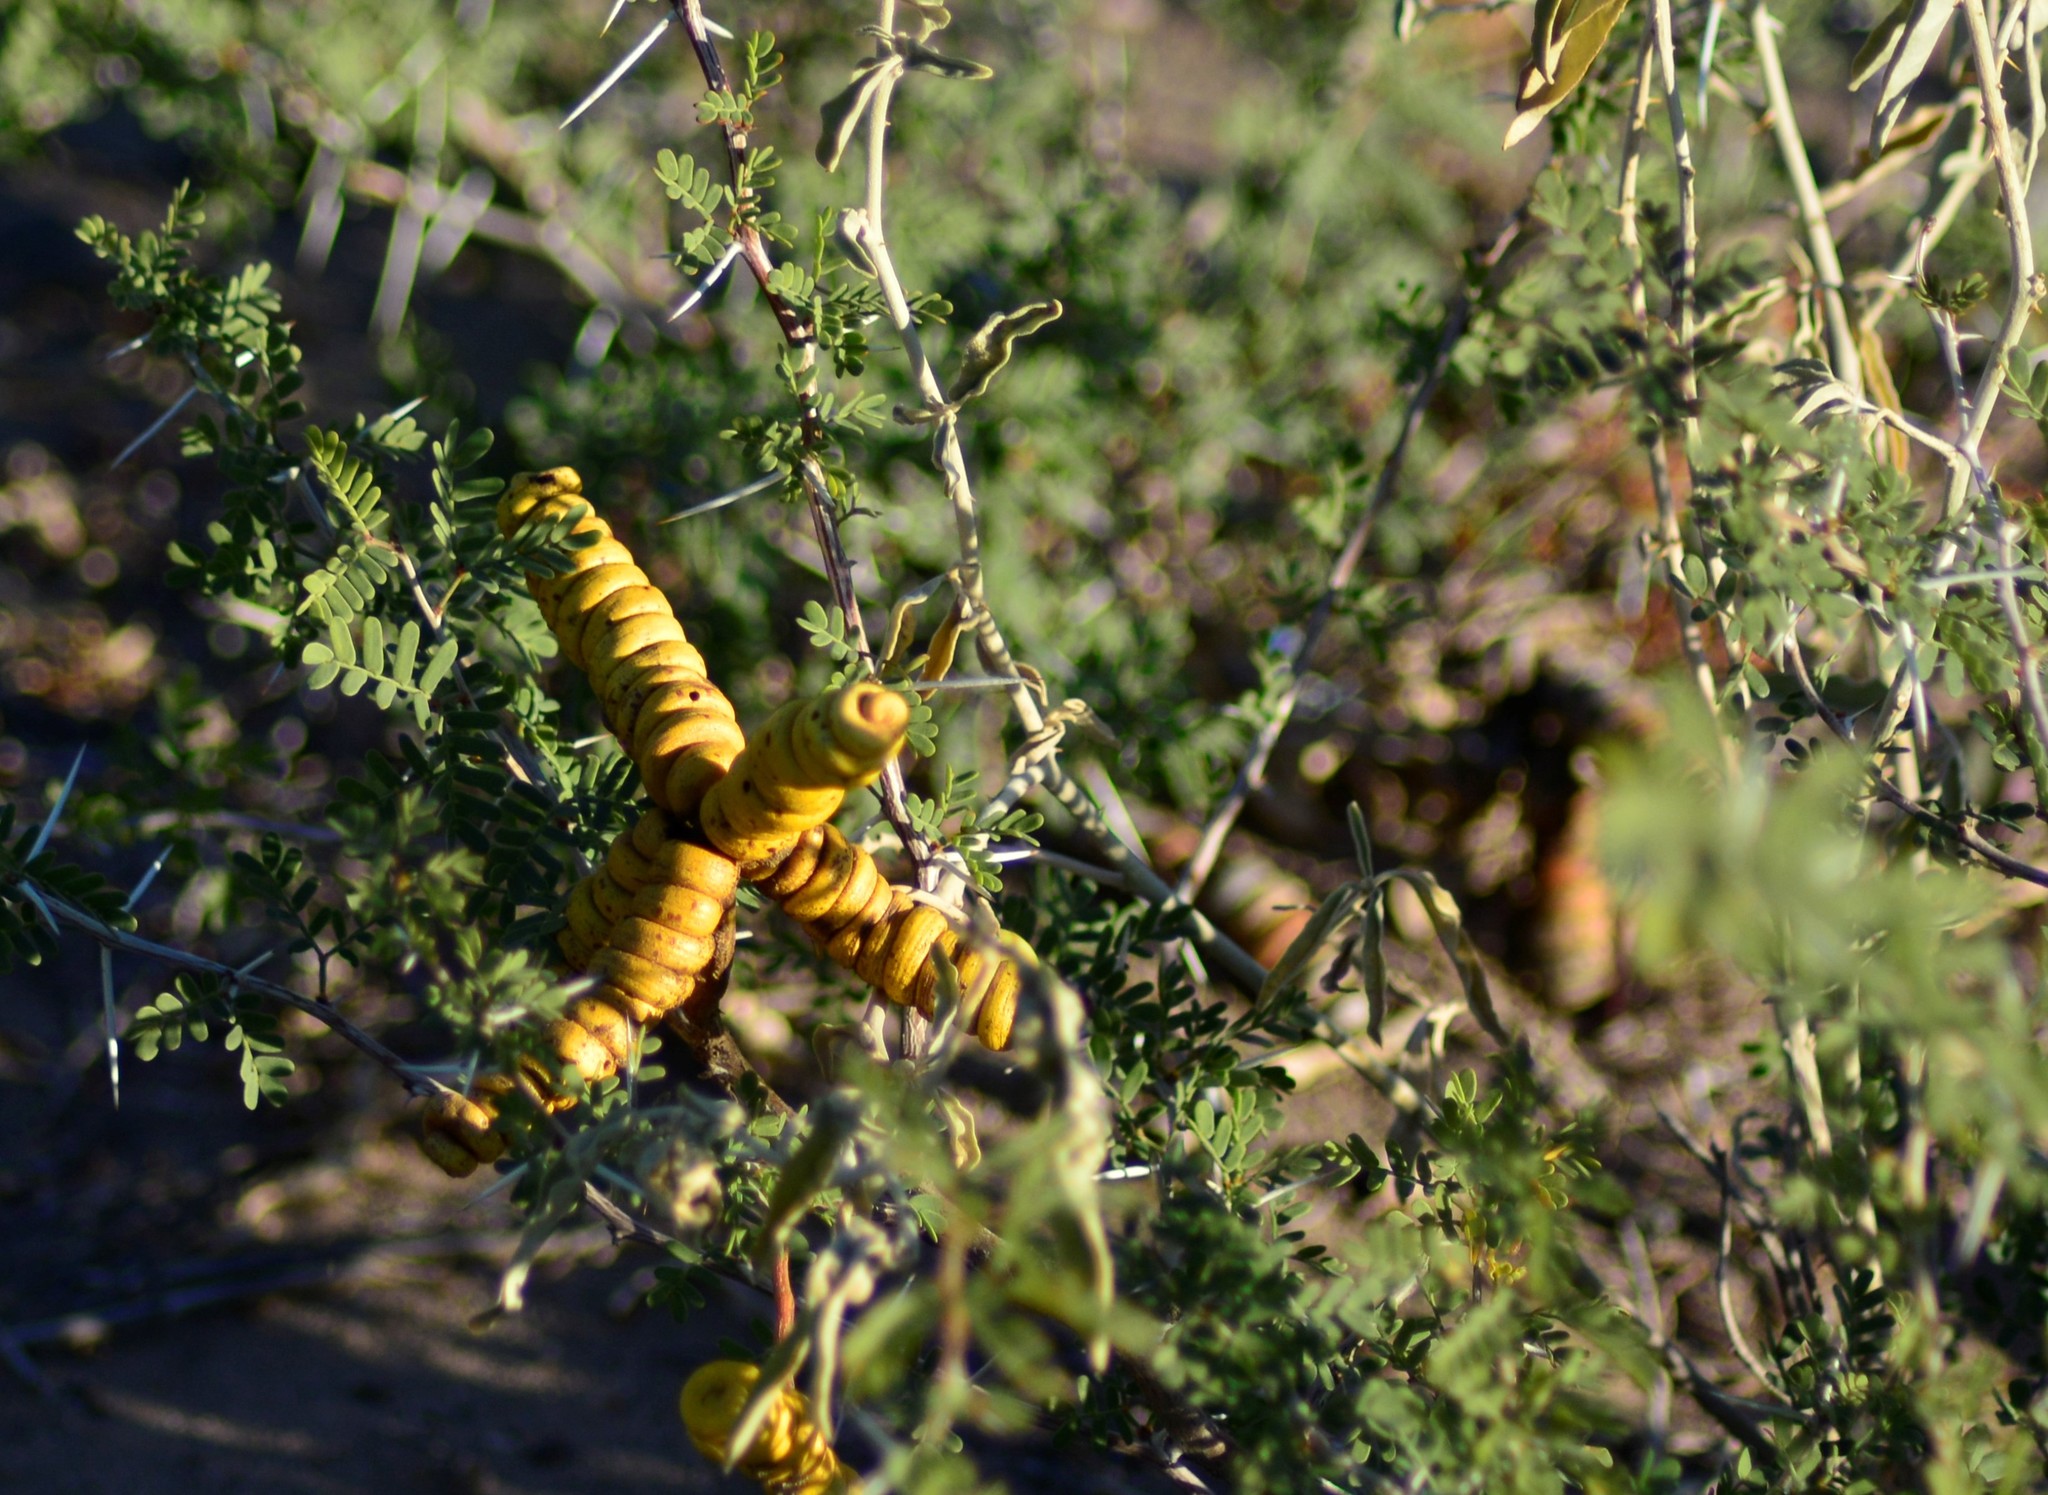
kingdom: Plantae
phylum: Tracheophyta
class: Magnoliopsida
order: Fabales
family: Fabaceae
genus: Prosopis
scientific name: Prosopis strombulifera
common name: Creeping mesquite
